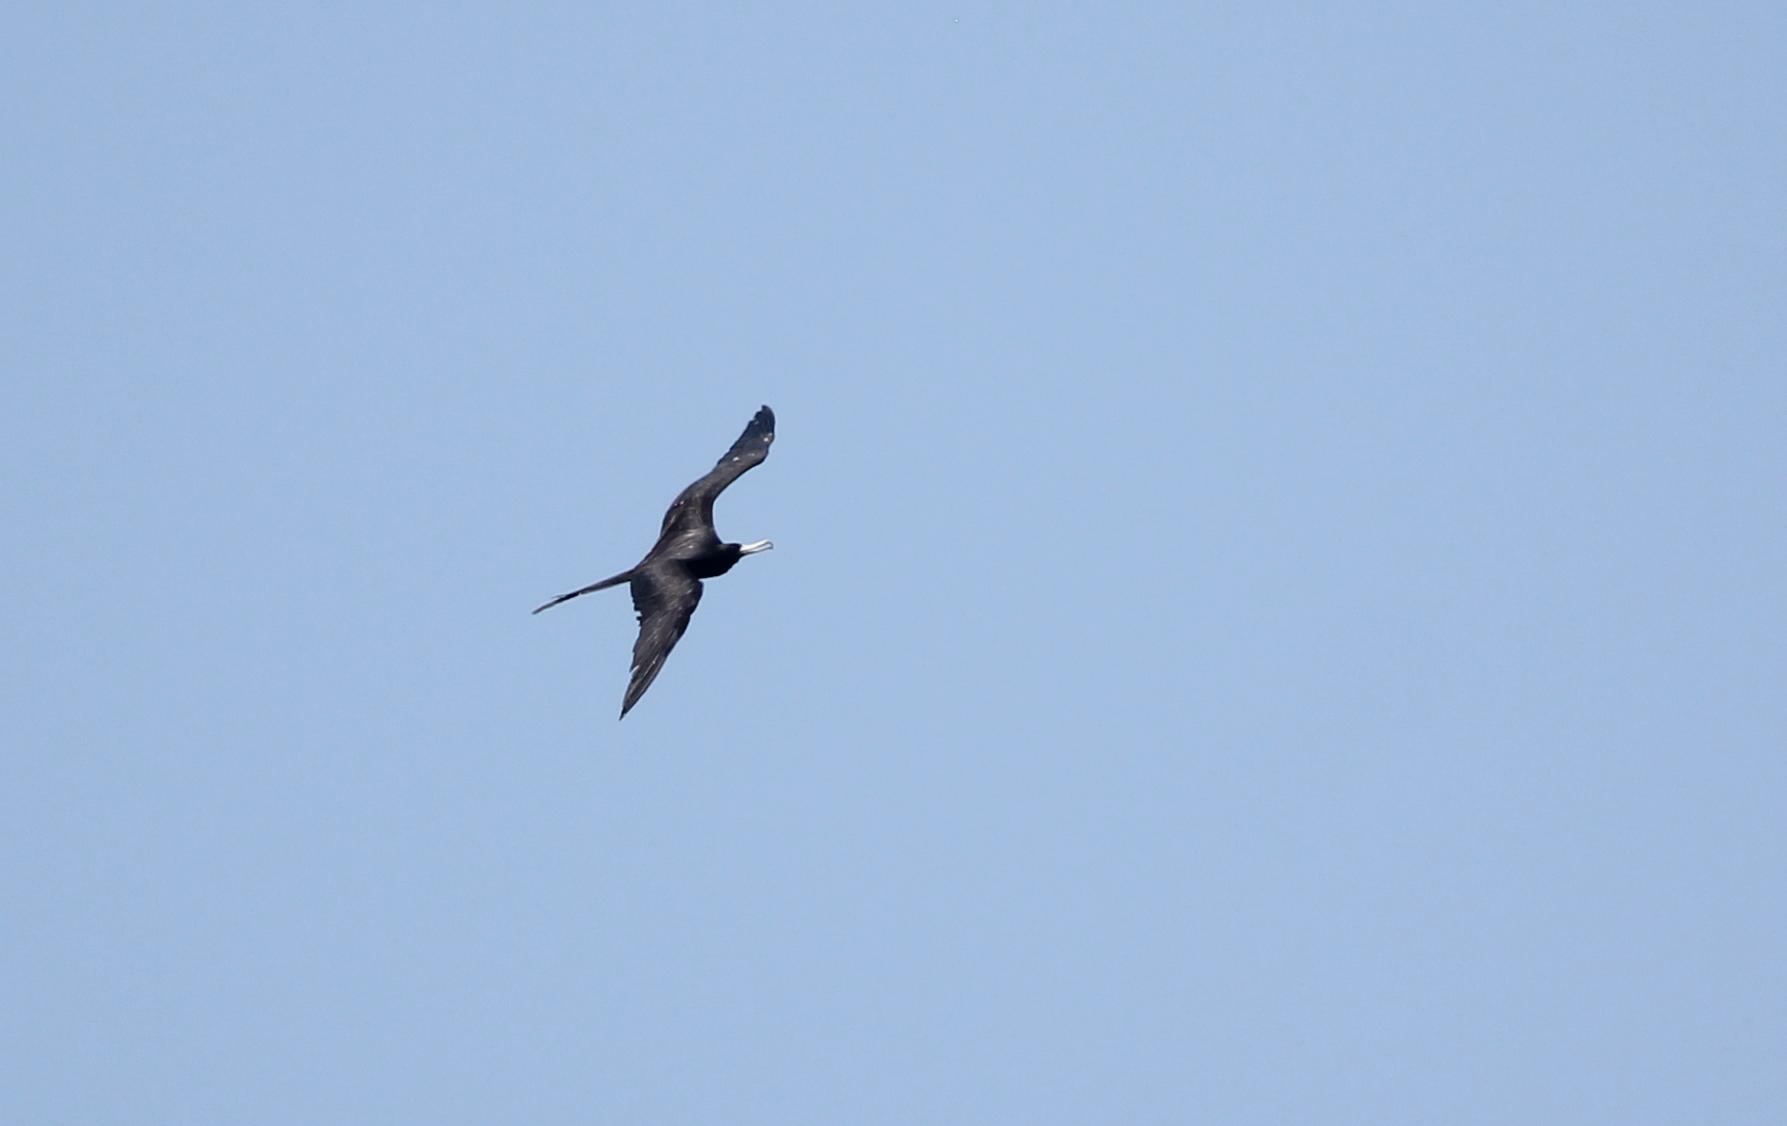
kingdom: Animalia
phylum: Chordata
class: Aves
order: Suliformes
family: Fregatidae
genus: Fregata
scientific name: Fregata magnificens
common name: Magnificent frigatebird
